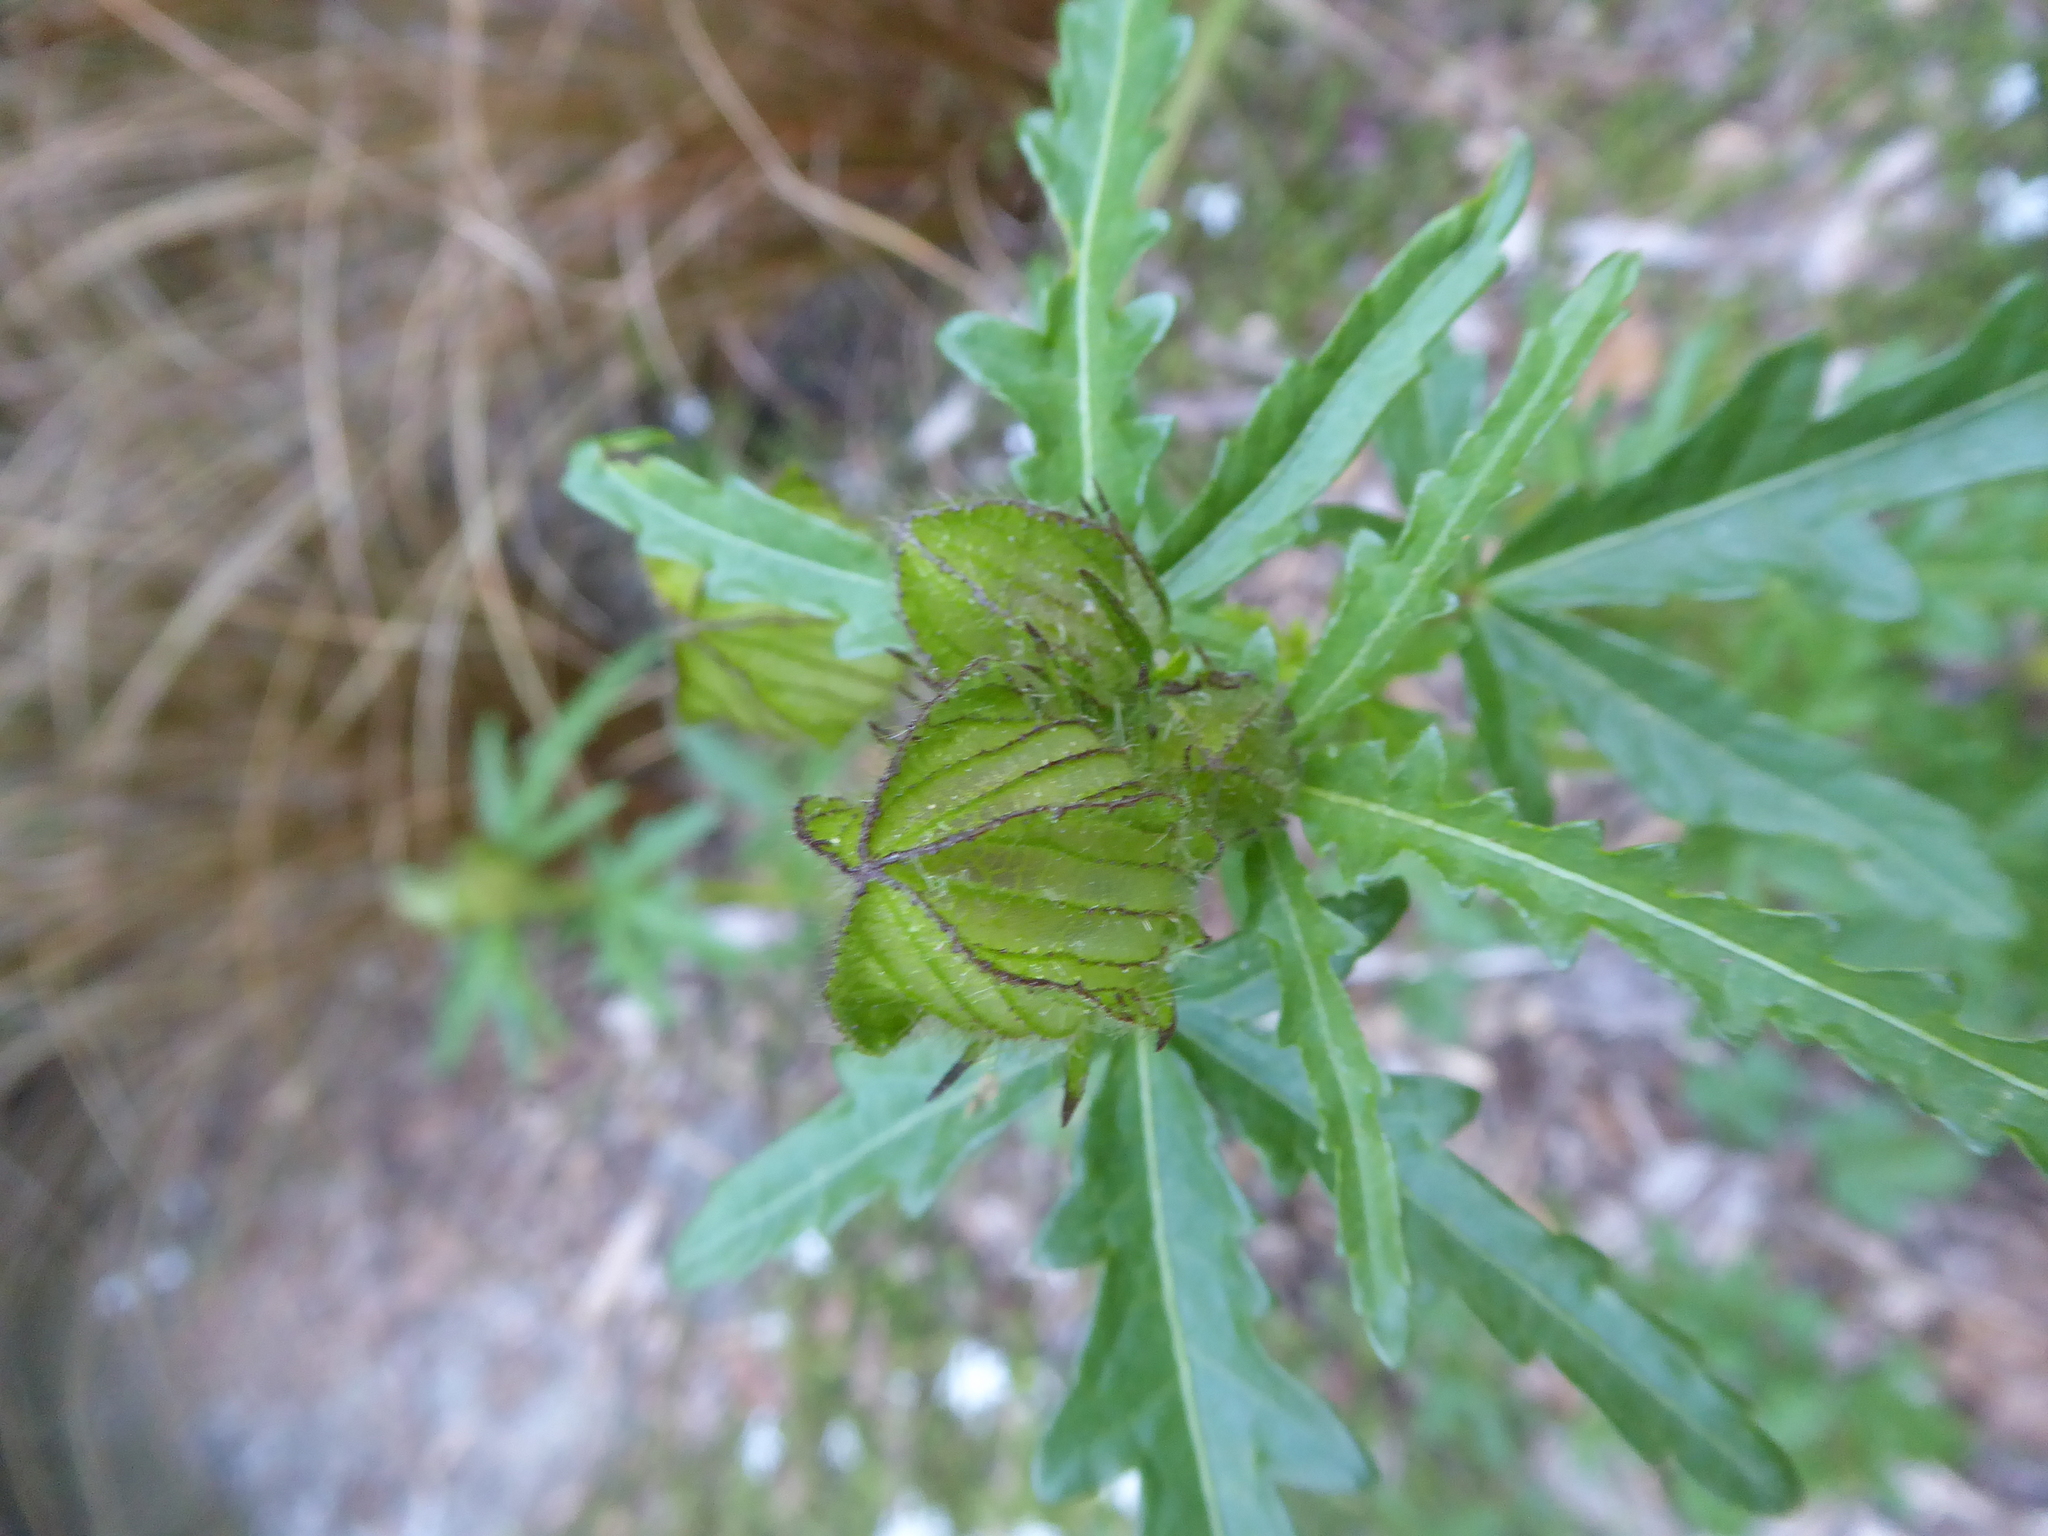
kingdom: Plantae
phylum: Tracheophyta
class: Magnoliopsida
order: Malvales
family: Malvaceae
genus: Hibiscus
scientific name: Hibiscus trionum
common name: Bladder ketmia
